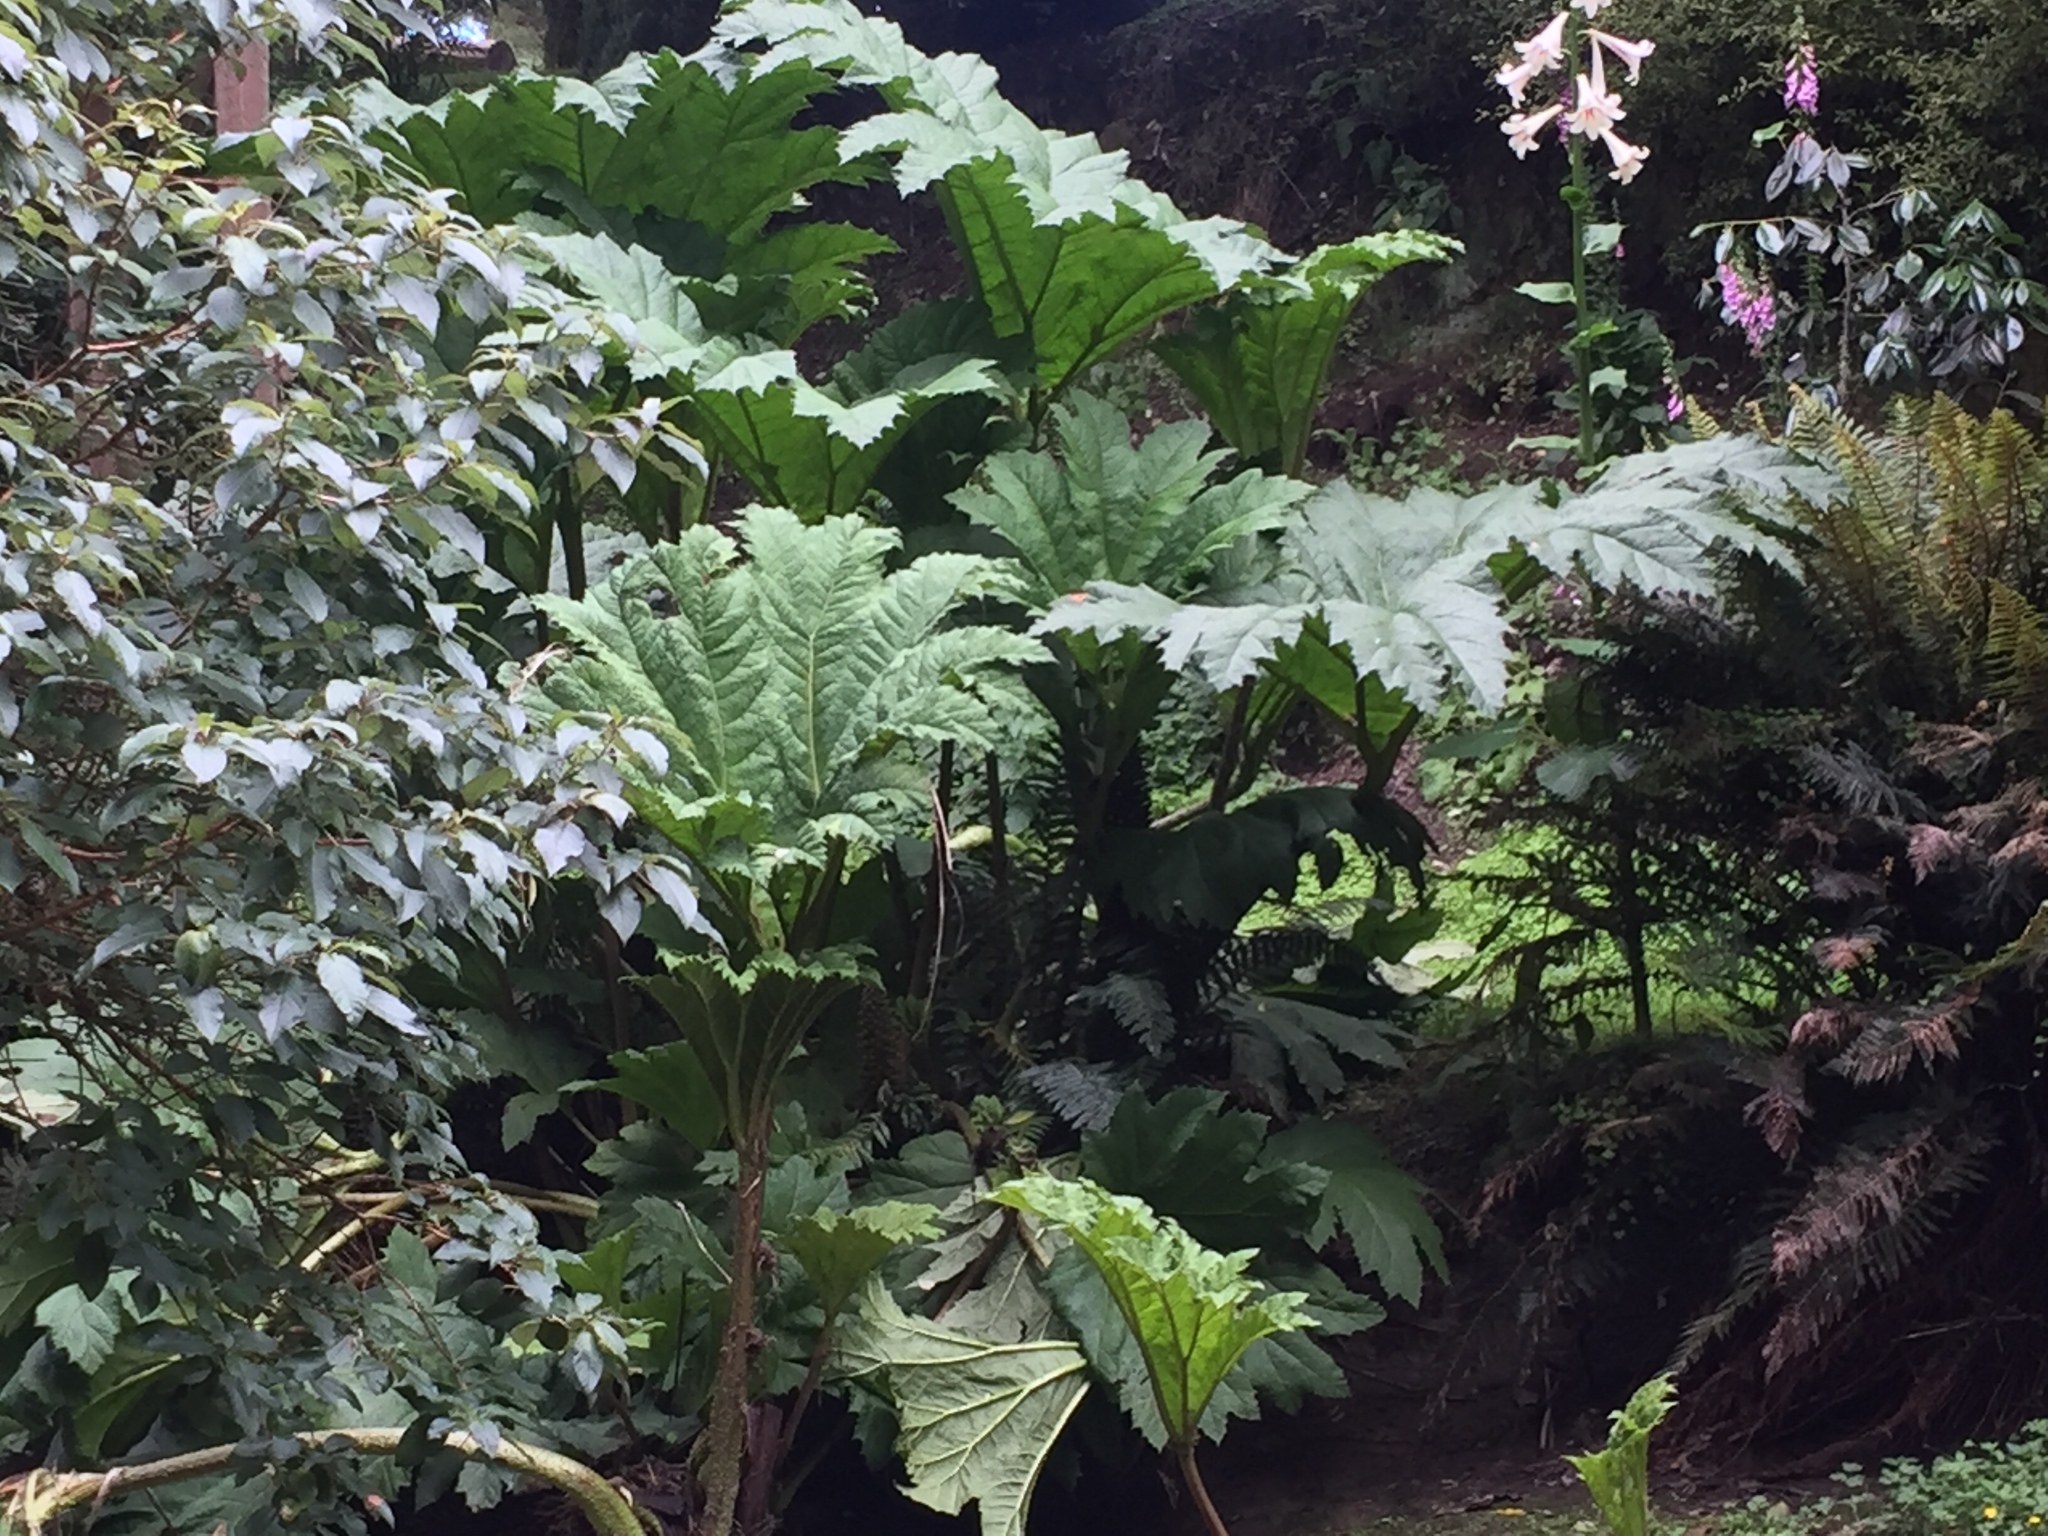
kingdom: Plantae
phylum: Tracheophyta
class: Magnoliopsida
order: Gunnerales
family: Gunneraceae
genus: Gunnera
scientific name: Gunnera tinctoria
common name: Giant-rhubarb
